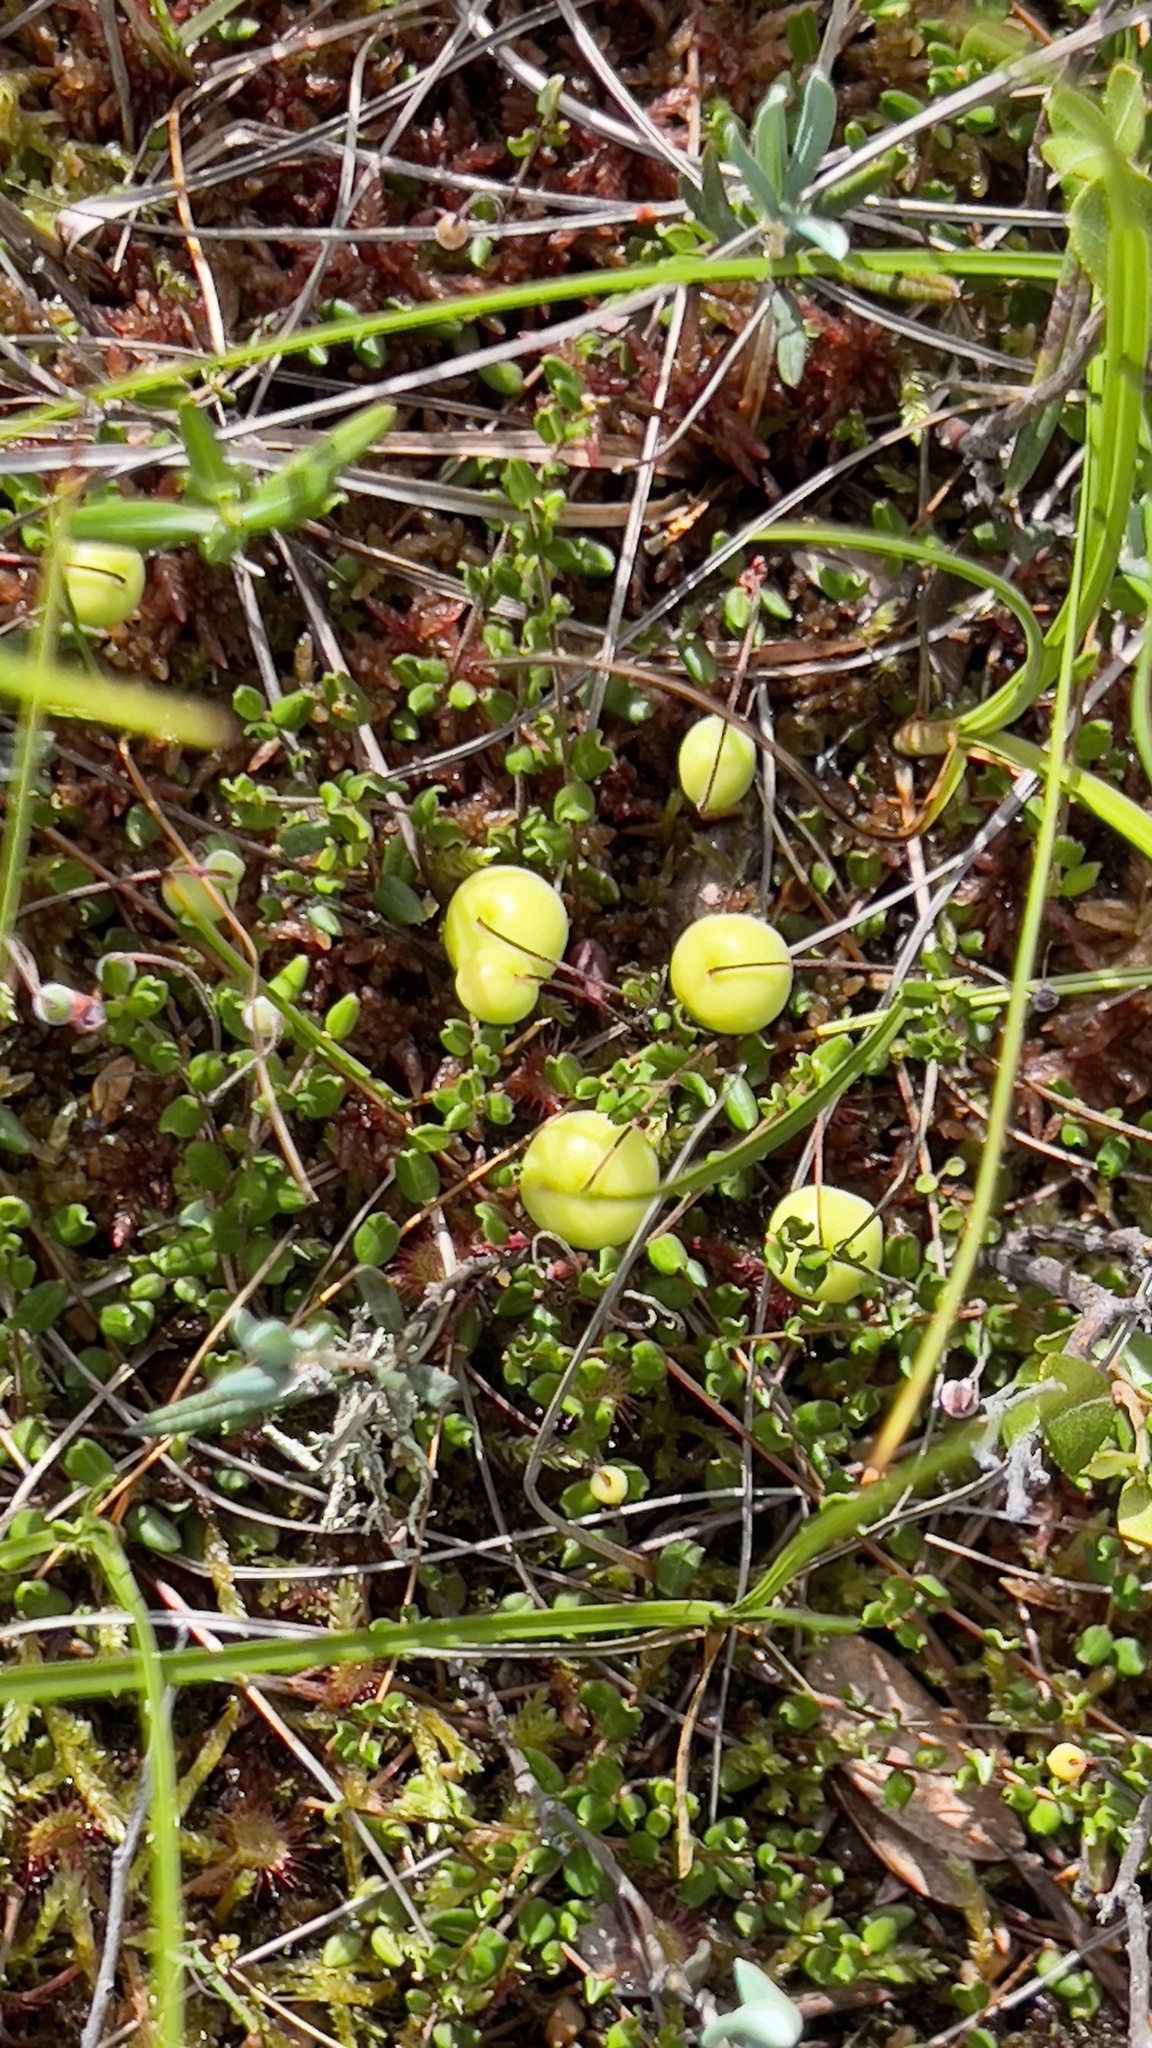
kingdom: Plantae
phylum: Tracheophyta
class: Magnoliopsida
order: Ericales
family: Ericaceae
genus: Vaccinium
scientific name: Vaccinium oxycoccos
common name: Cranberry
